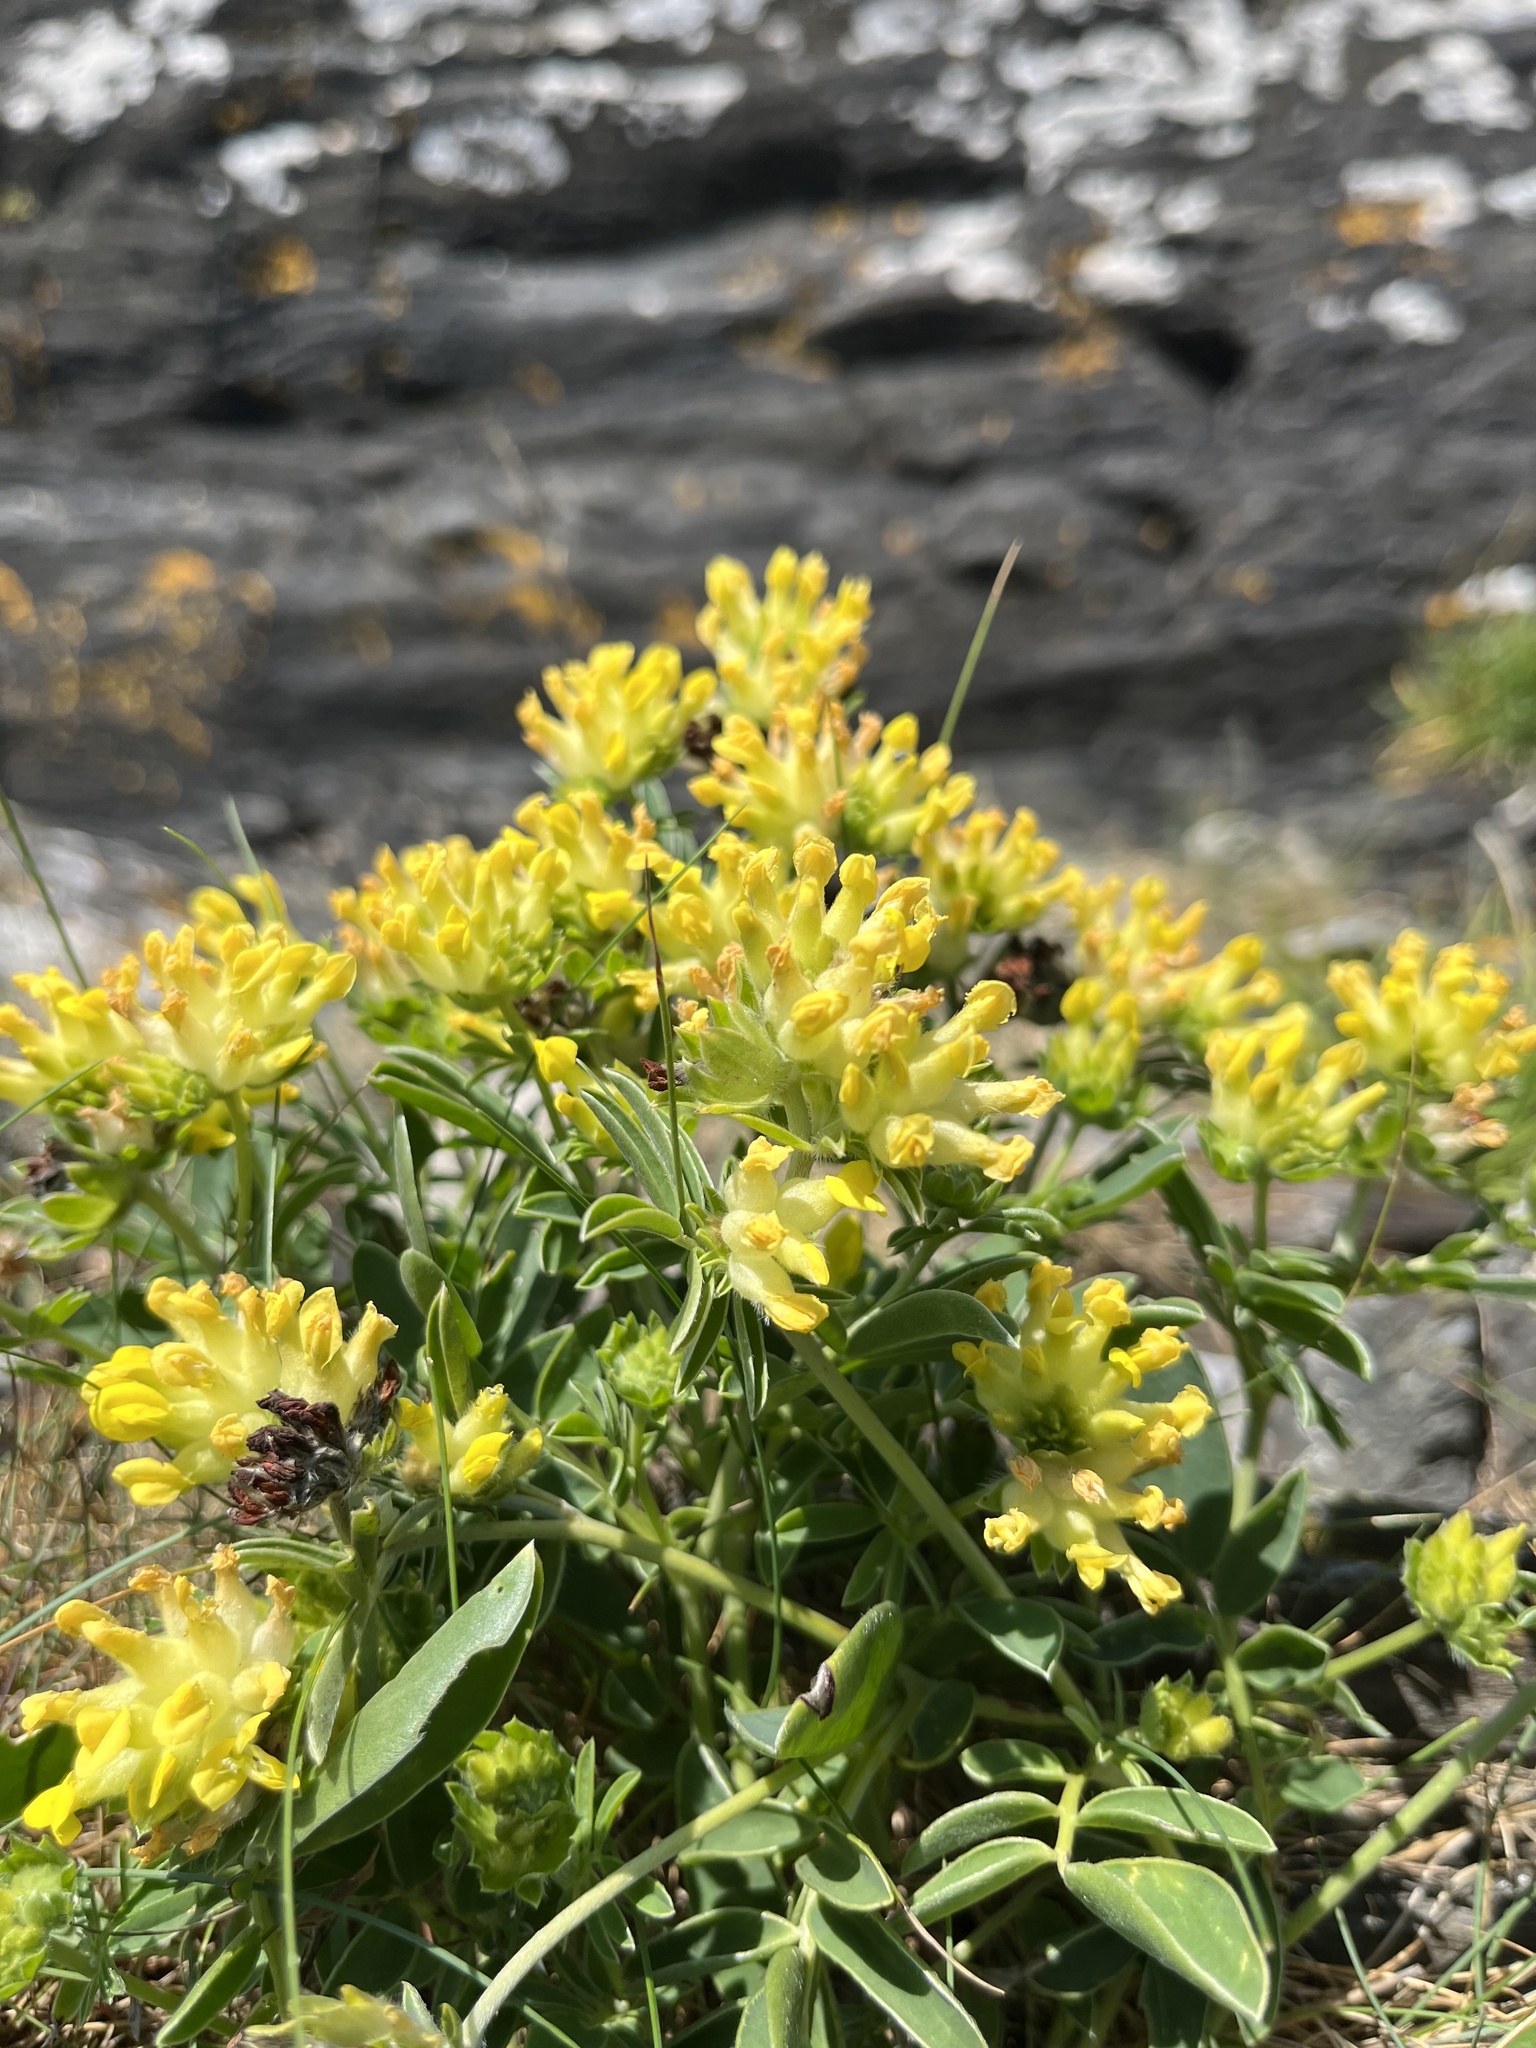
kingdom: Plantae
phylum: Tracheophyta
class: Magnoliopsida
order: Fabales
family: Fabaceae
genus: Anthyllis
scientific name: Anthyllis vulneraria
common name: Kidney vetch
